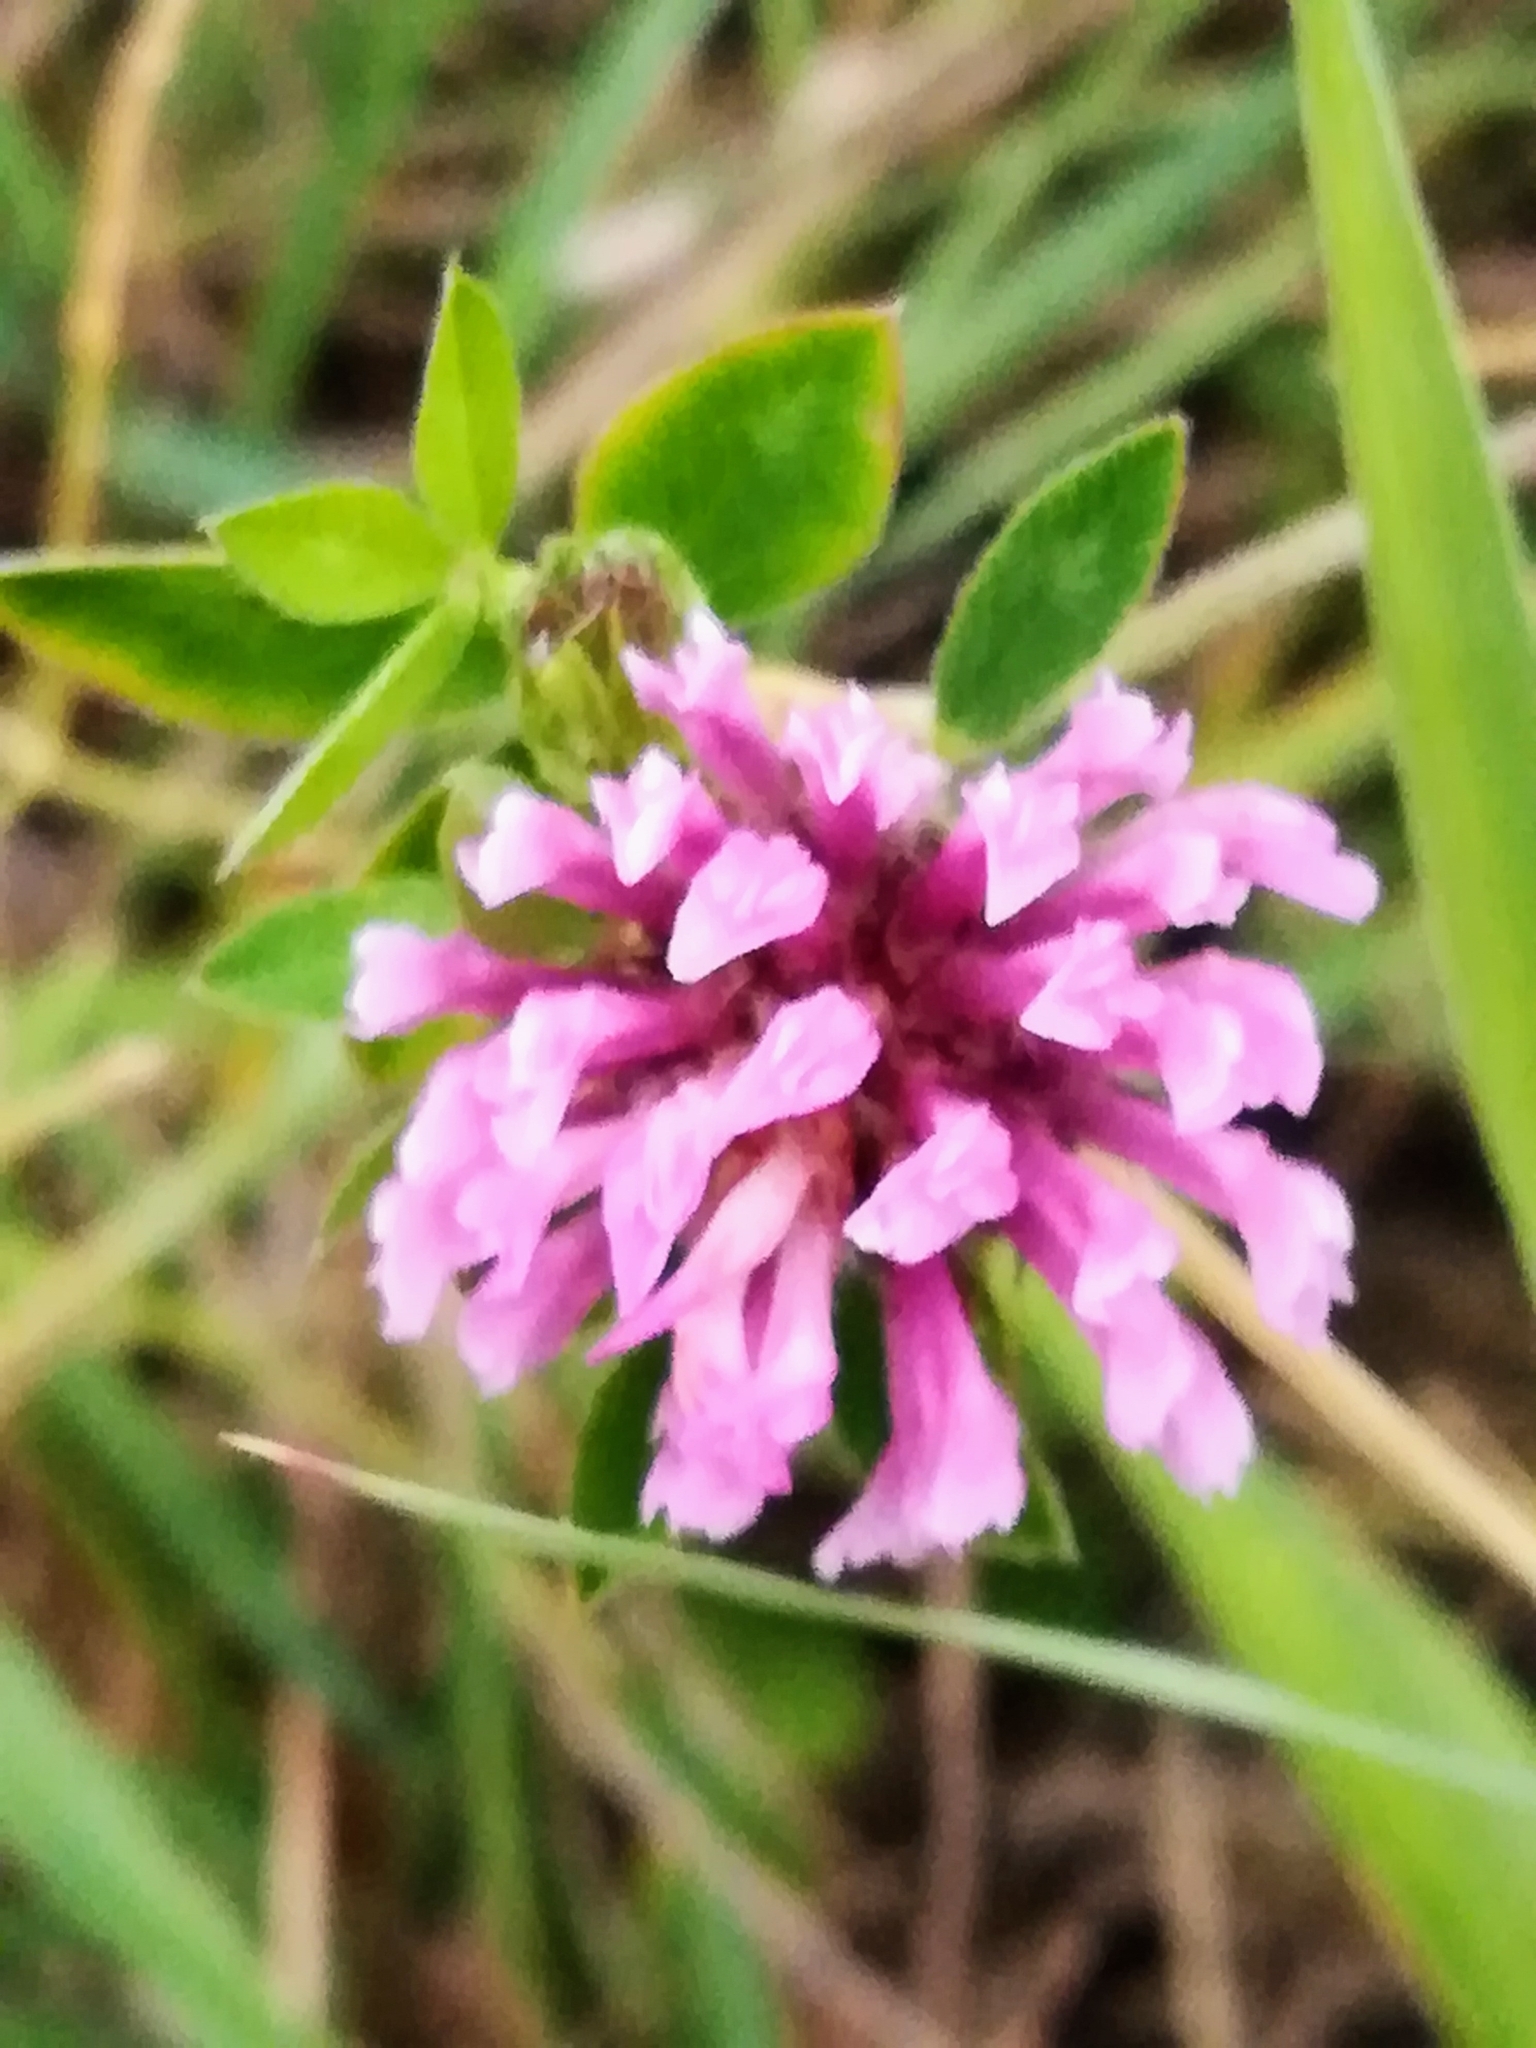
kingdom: Plantae
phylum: Tracheophyta
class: Magnoliopsida
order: Fabales
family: Fabaceae
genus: Trifolium
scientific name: Trifolium pratense
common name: Red clover
